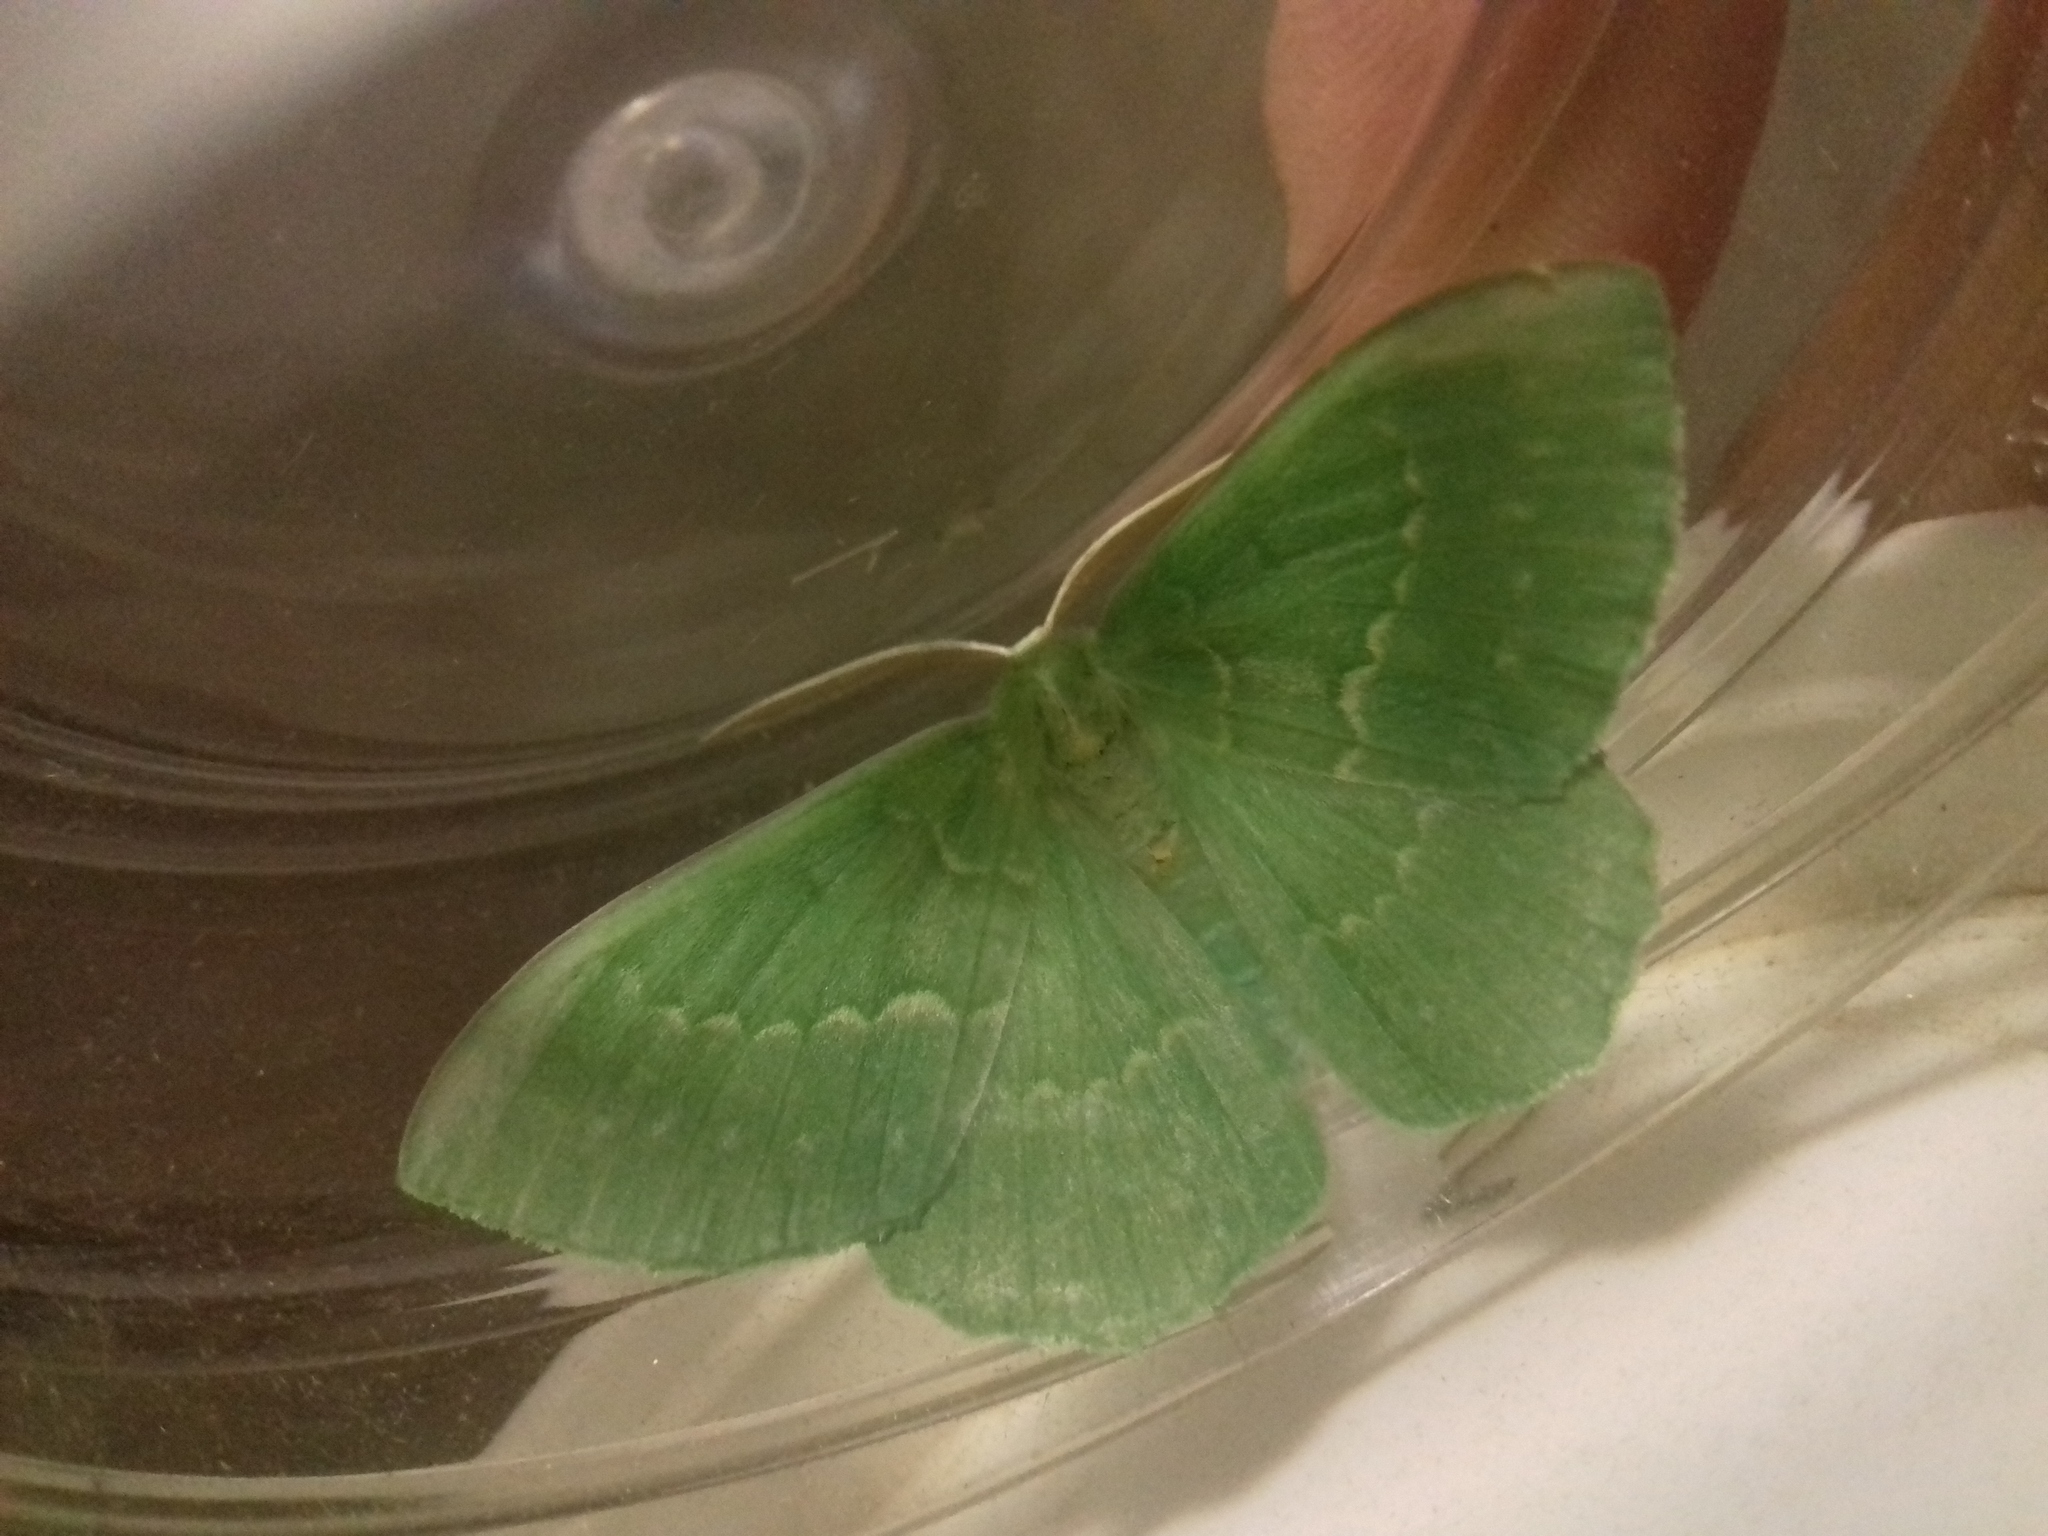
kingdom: Animalia
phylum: Arthropoda
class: Insecta
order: Lepidoptera
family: Geometridae
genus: Geometra
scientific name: Geometra papilionaria
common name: Large emerald
